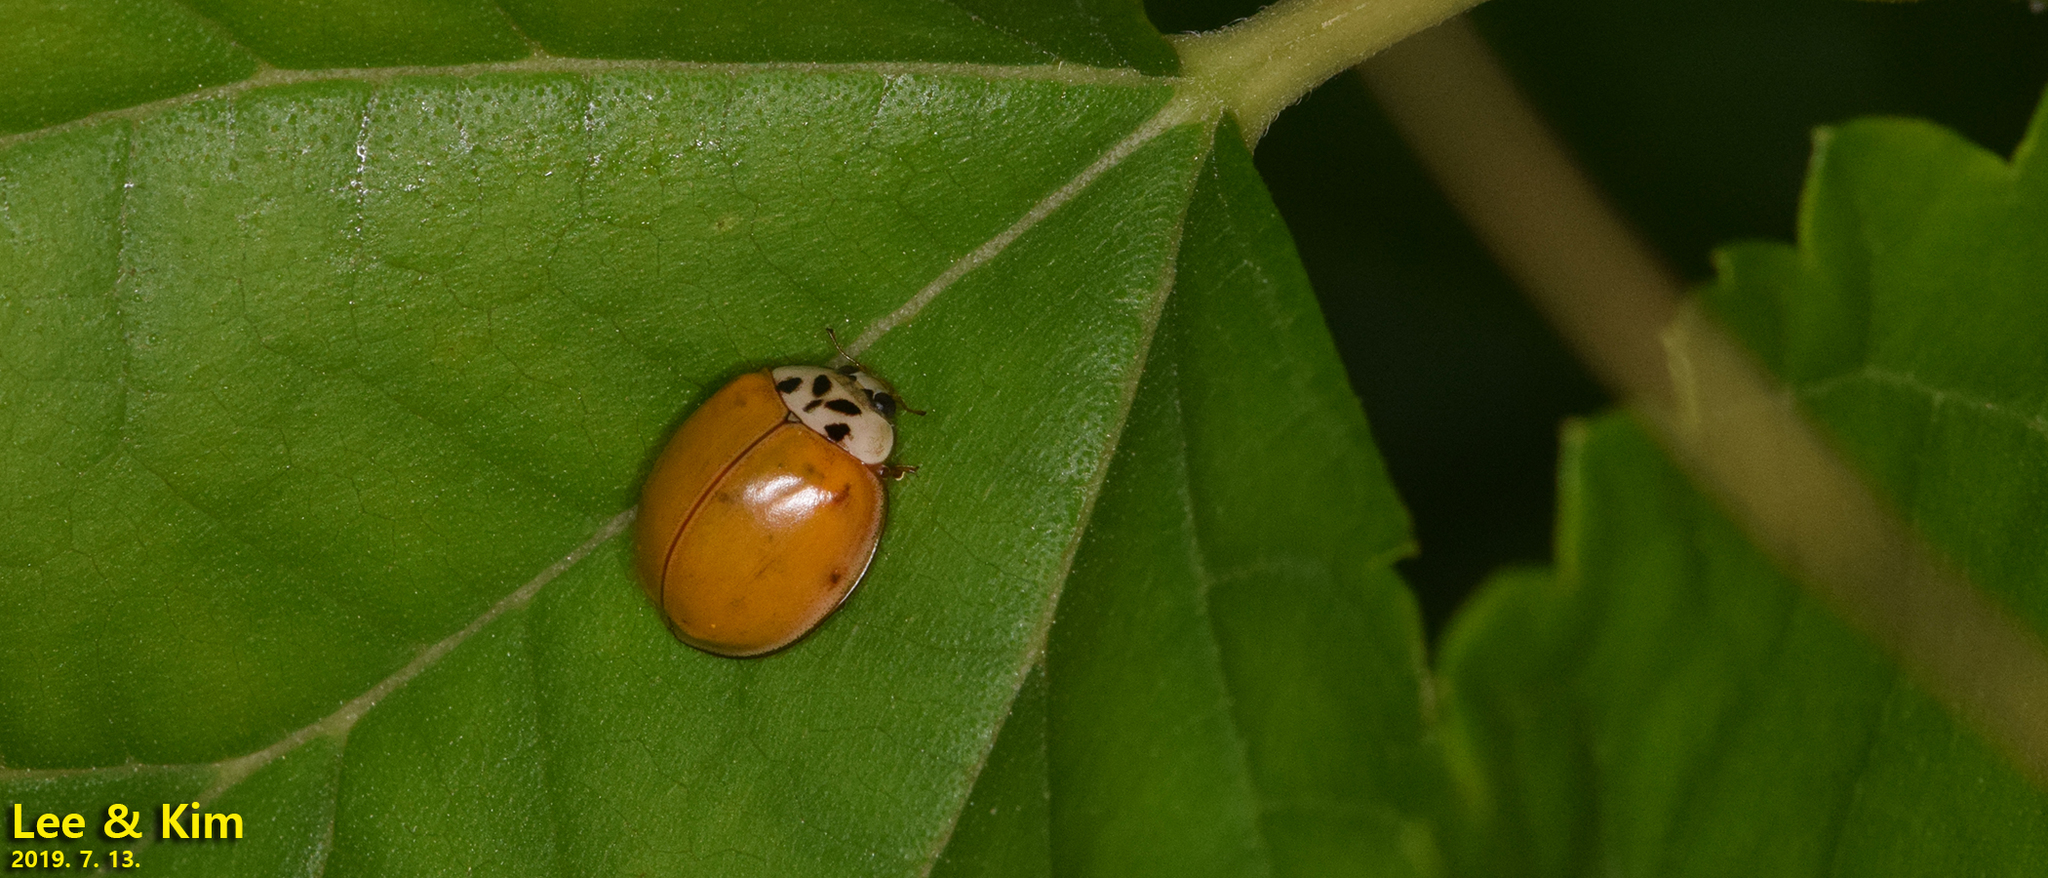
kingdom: Animalia
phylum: Arthropoda
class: Insecta
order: Coleoptera
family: Coccinellidae
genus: Harmonia
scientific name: Harmonia axyridis
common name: Harlequin ladybird
